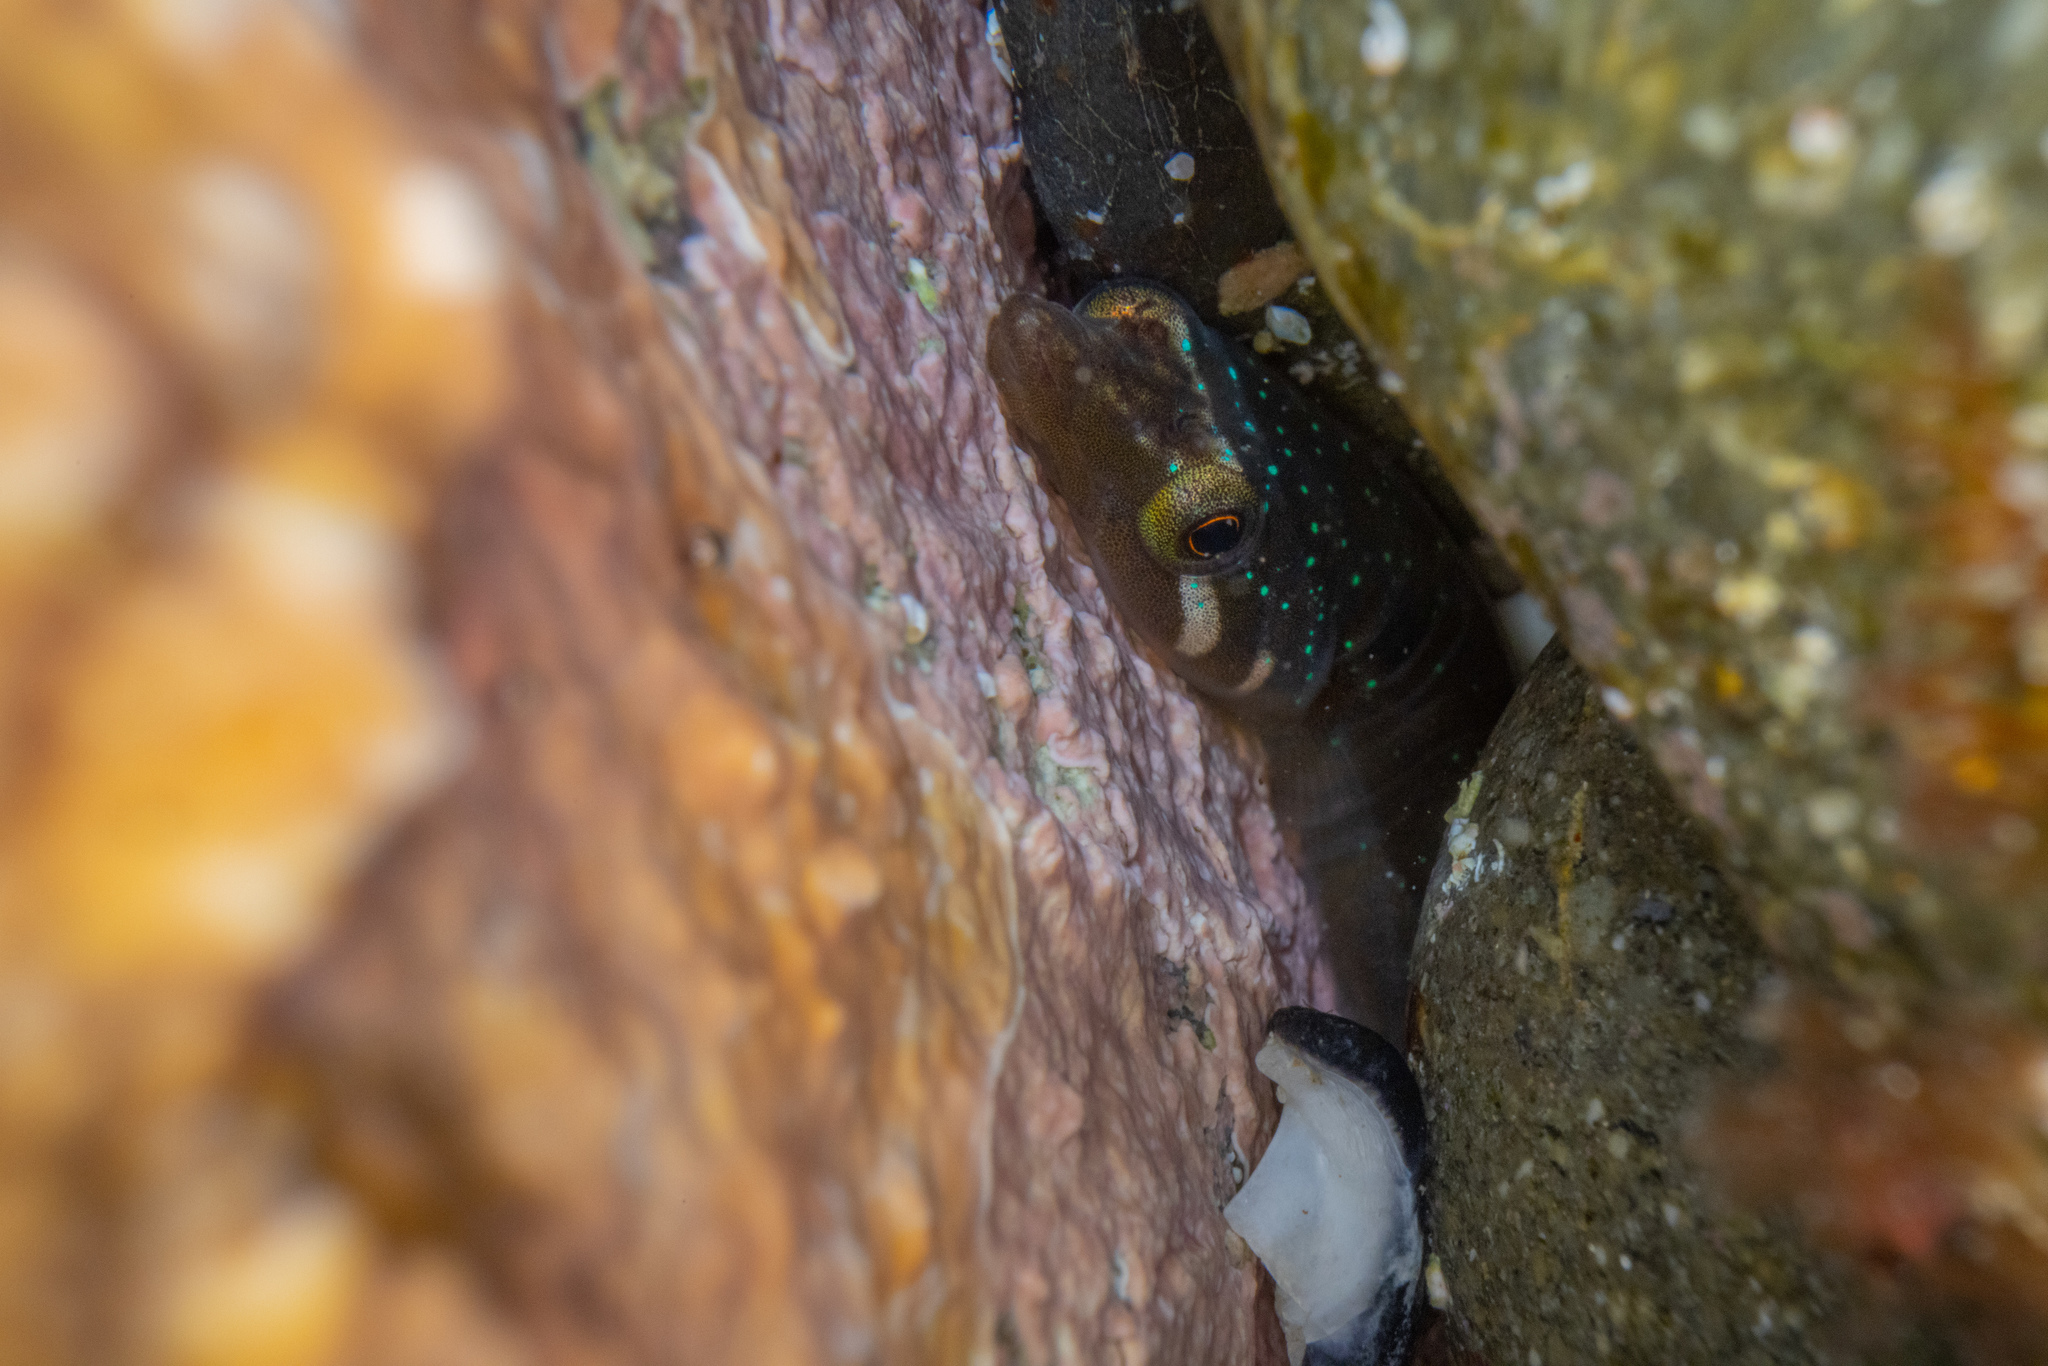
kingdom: Animalia
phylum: Chordata
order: Gobiesociformes
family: Gobiesocidae
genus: Dellichthys
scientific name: Dellichthys morelandi
